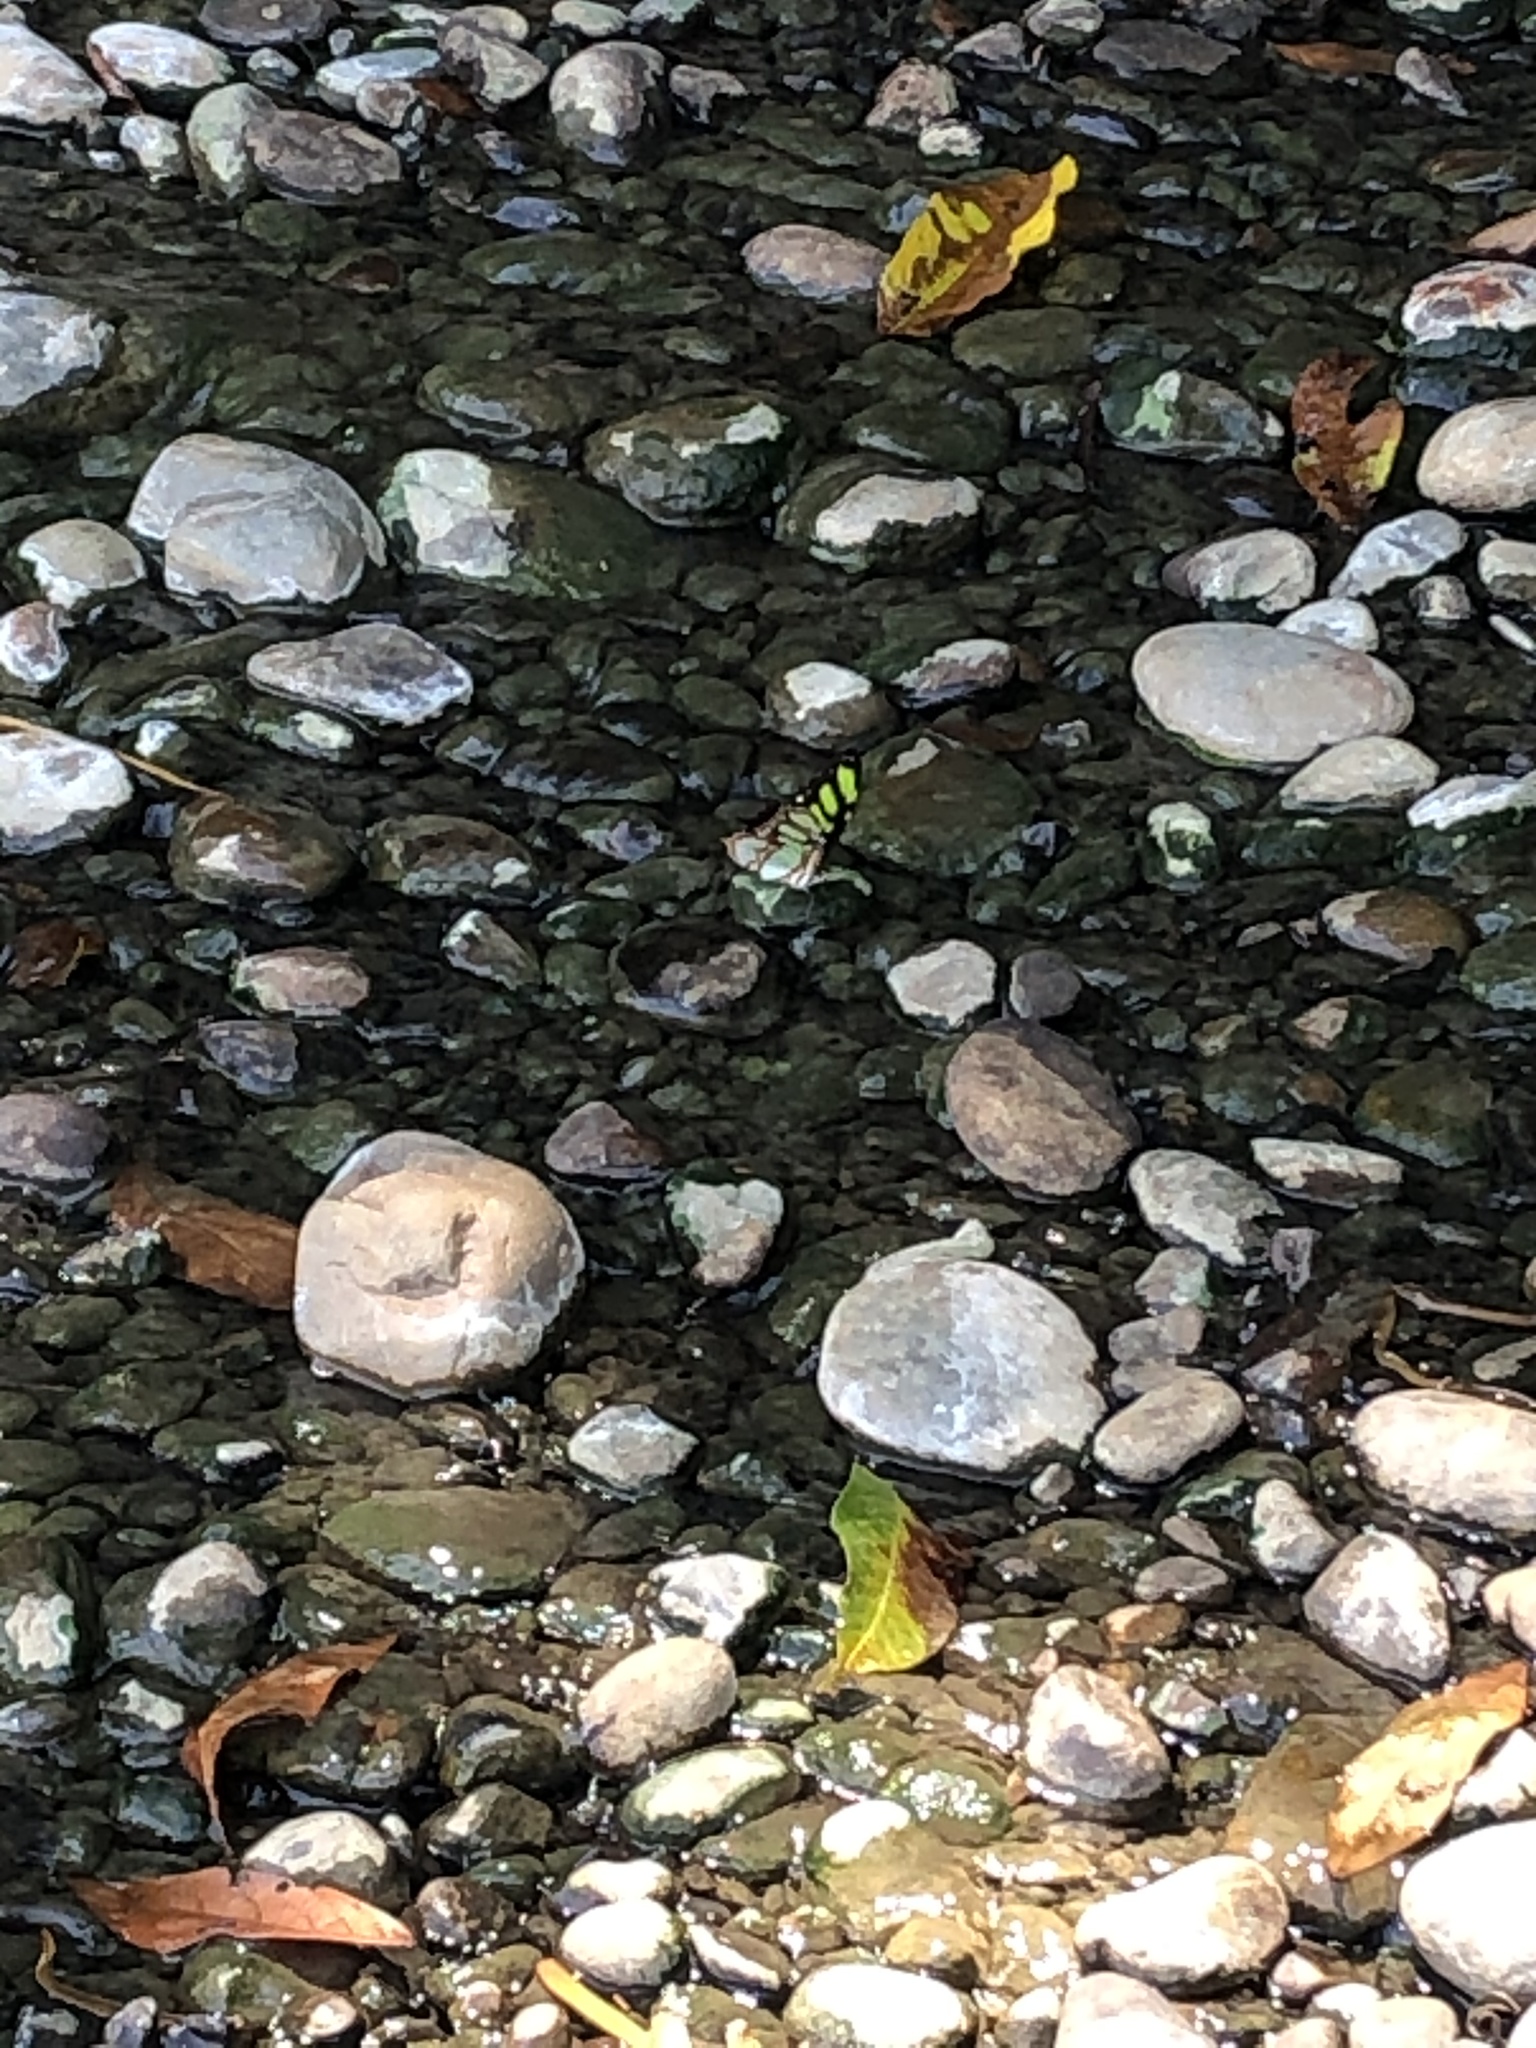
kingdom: Animalia
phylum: Arthropoda
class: Insecta
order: Lepidoptera
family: Nymphalidae
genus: Siproeta
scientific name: Siproeta stelenes
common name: Malachite
